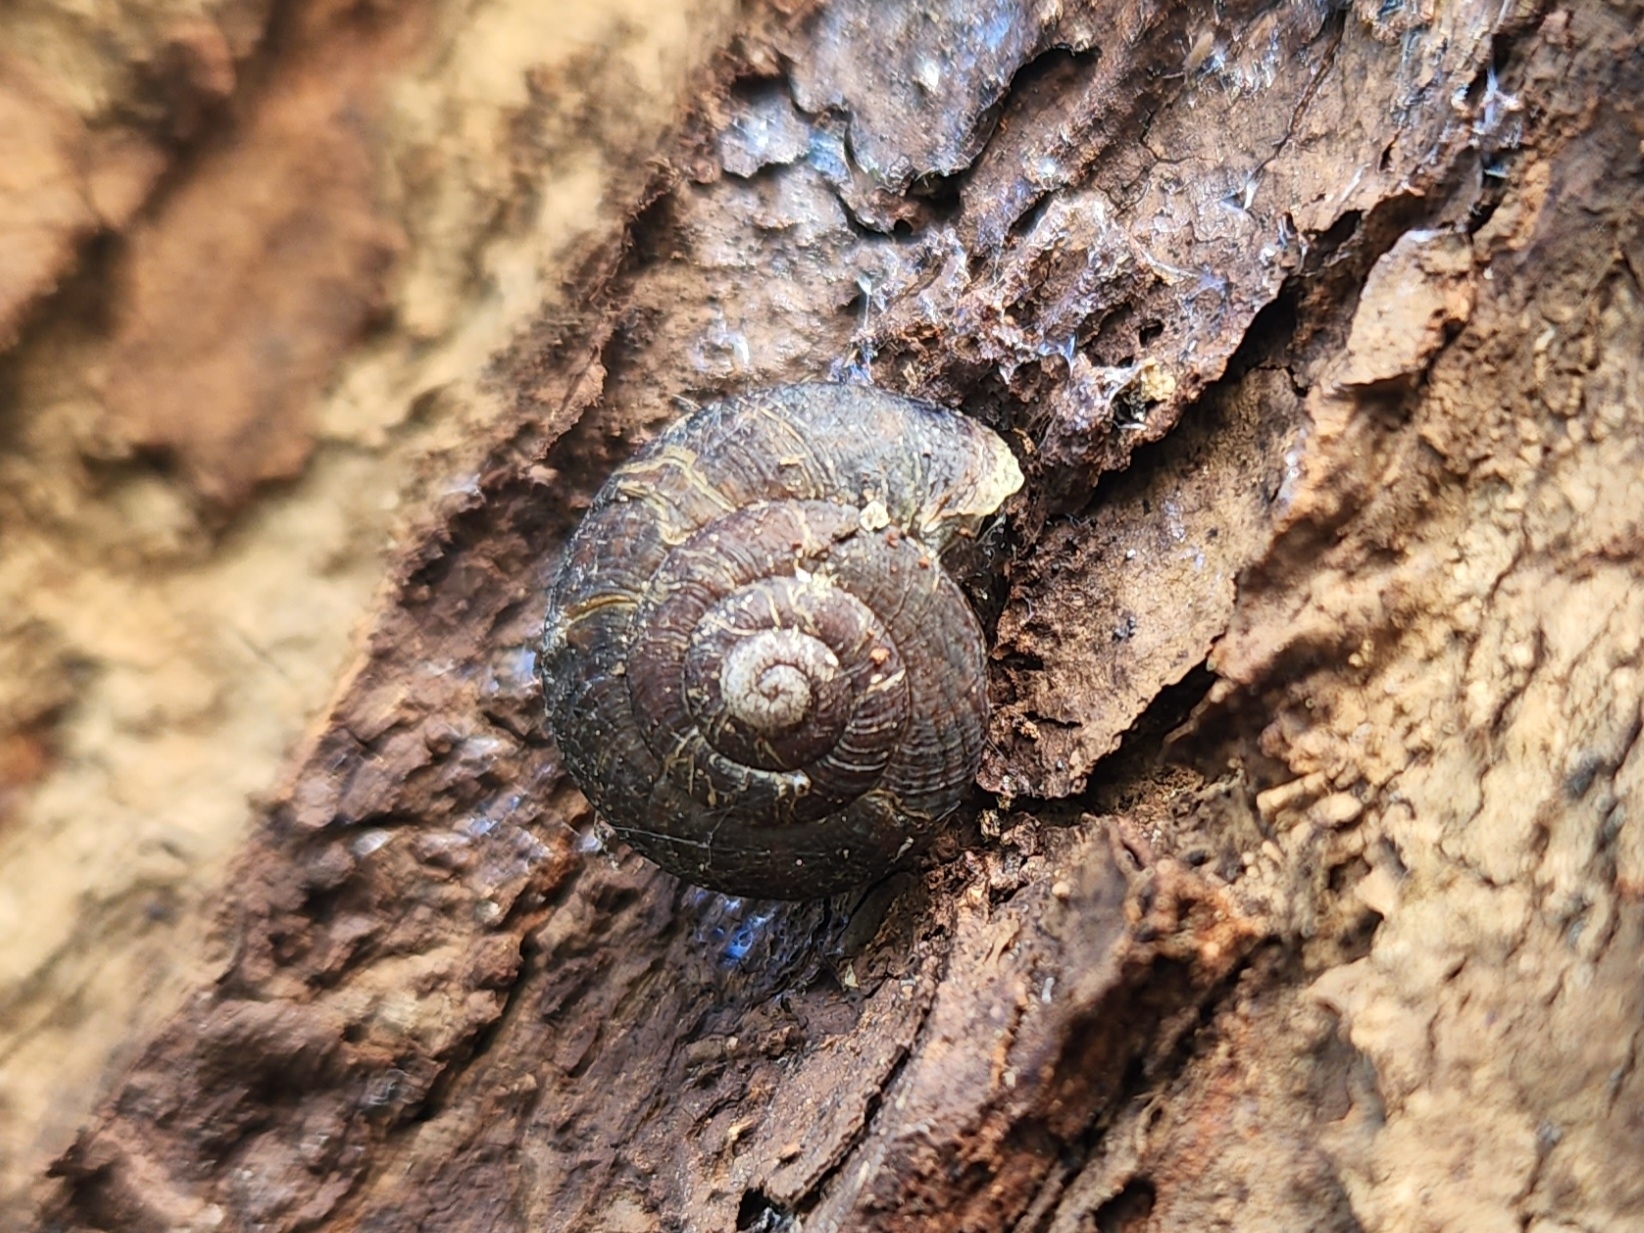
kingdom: Animalia
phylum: Mollusca
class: Gastropoda
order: Stylommatophora
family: Xanthonychidae
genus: Monadenia
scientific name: Monadenia fidelis
